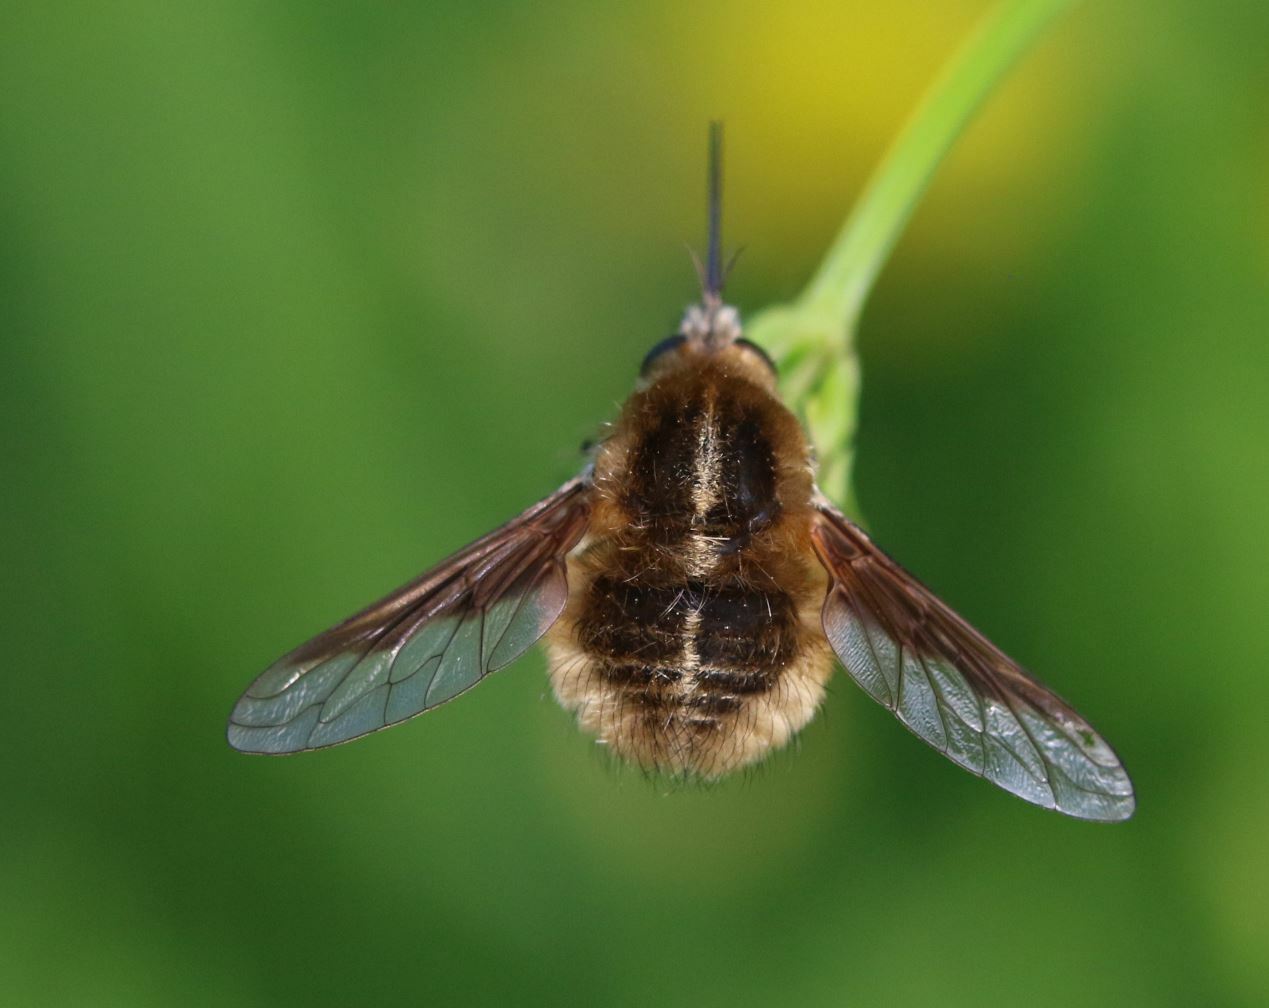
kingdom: Animalia
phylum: Arthropoda
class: Insecta
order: Diptera
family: Bombyliidae
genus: Bombylius
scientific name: Bombylius analis
